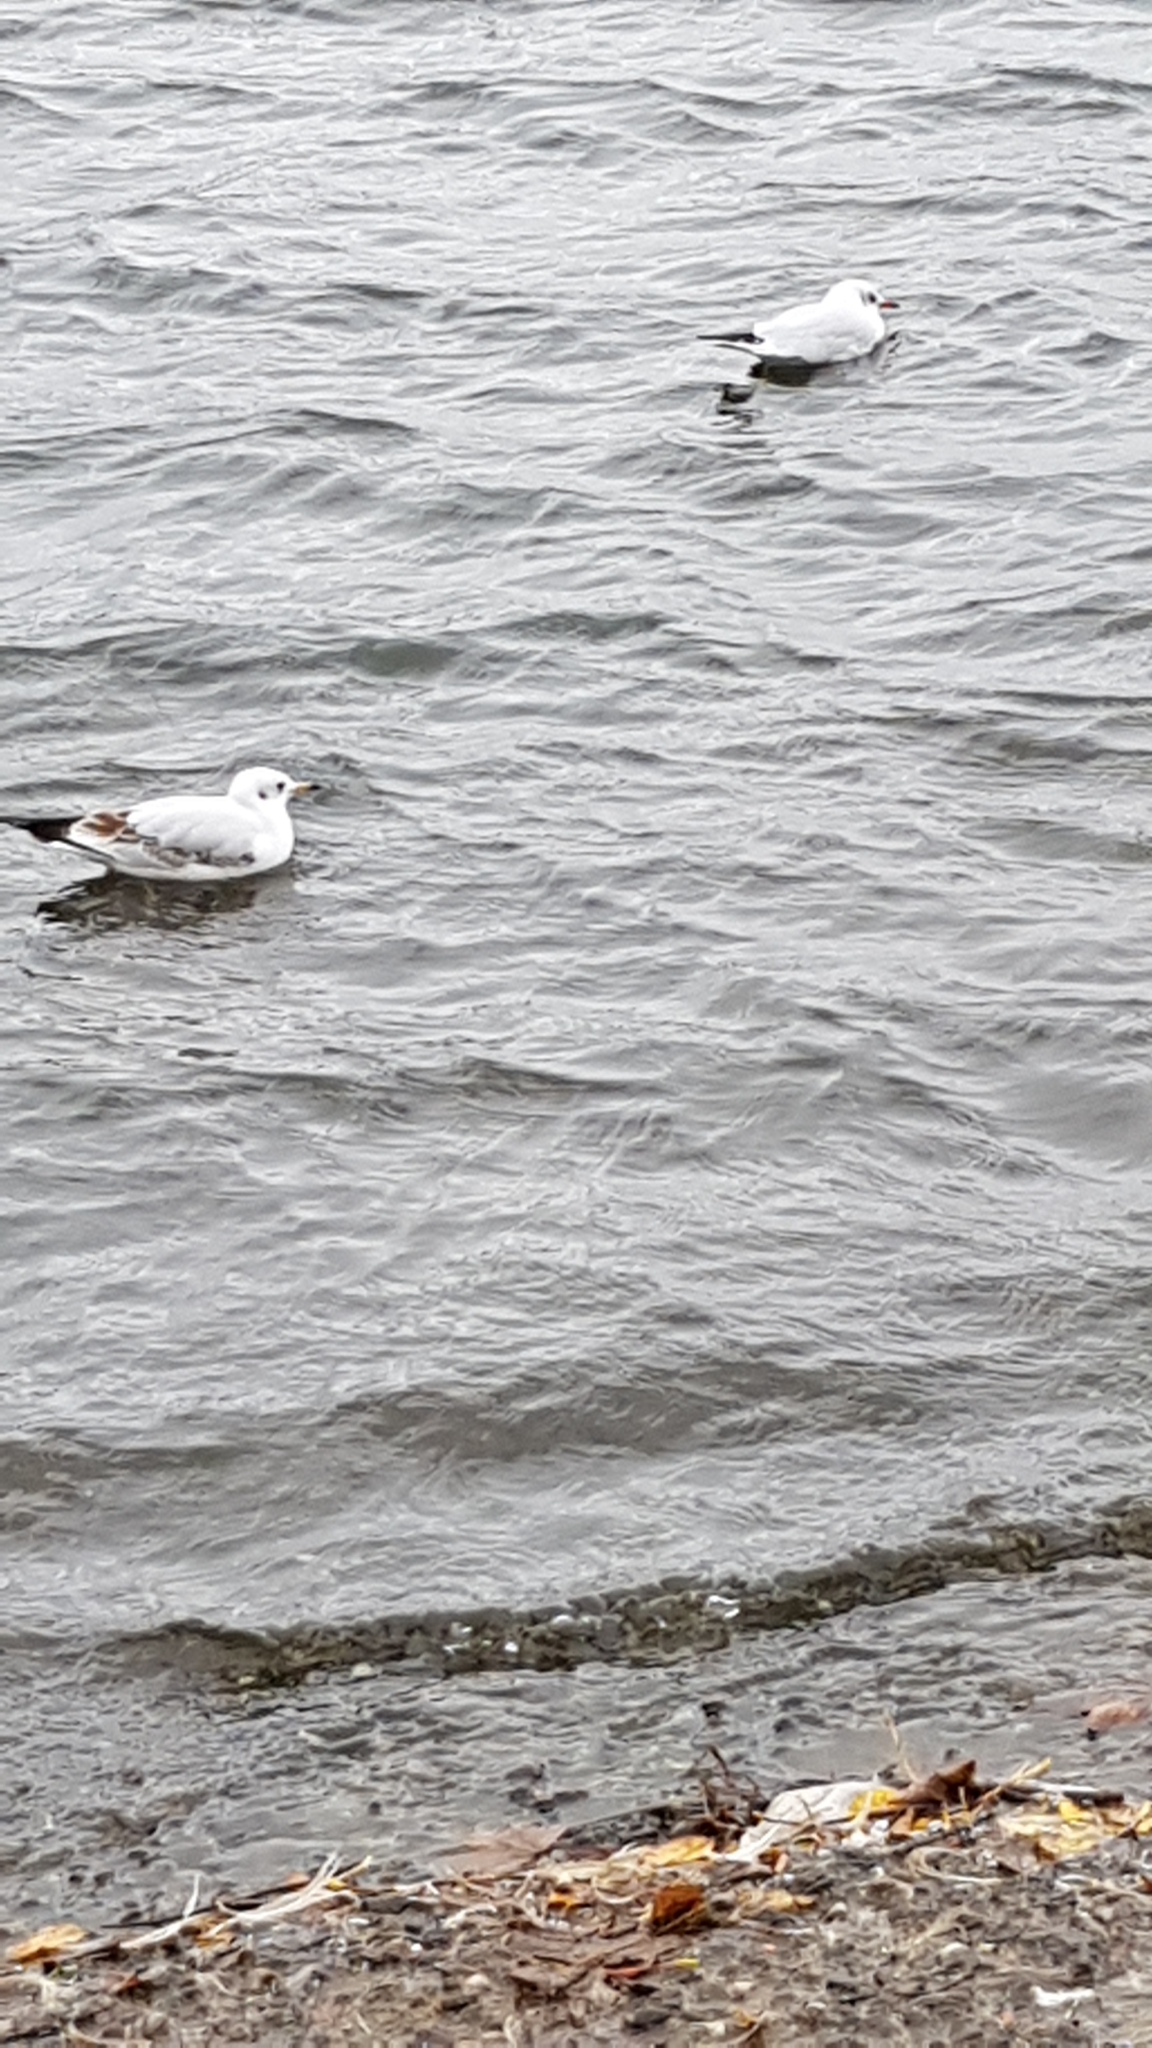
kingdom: Animalia
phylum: Chordata
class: Aves
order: Charadriiformes
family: Laridae
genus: Chroicocephalus
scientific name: Chroicocephalus ridibundus
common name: Black-headed gull
